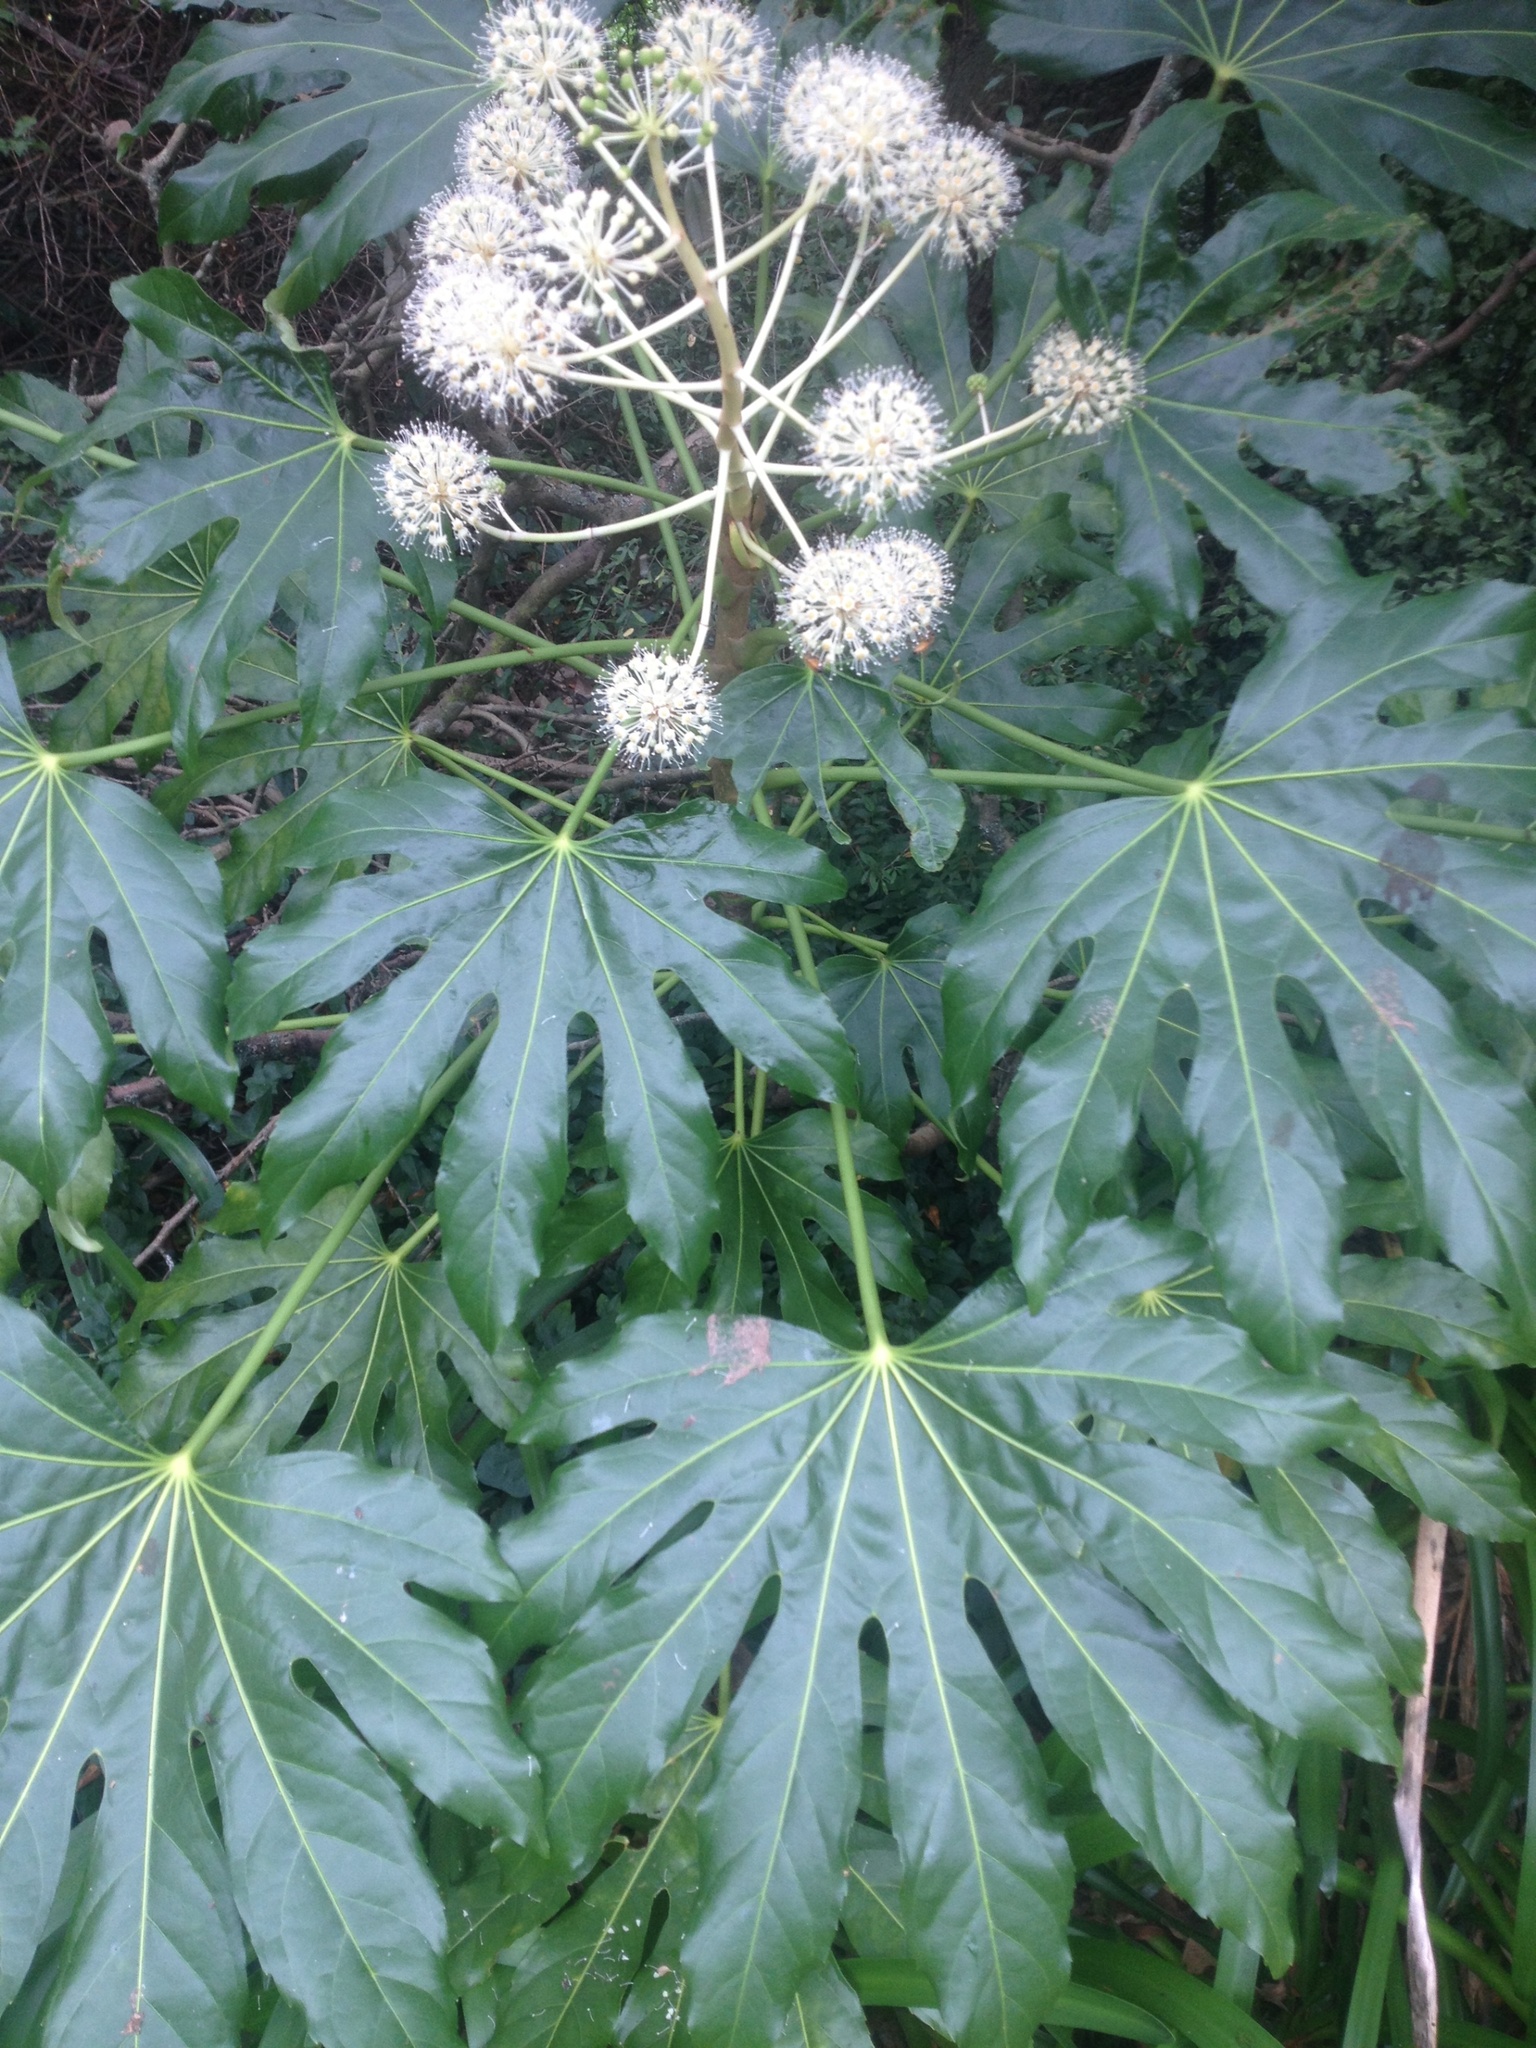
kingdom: Plantae
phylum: Tracheophyta
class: Magnoliopsida
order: Apiales
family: Araliaceae
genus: Fatsia
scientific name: Fatsia japonica
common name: Fatsia
